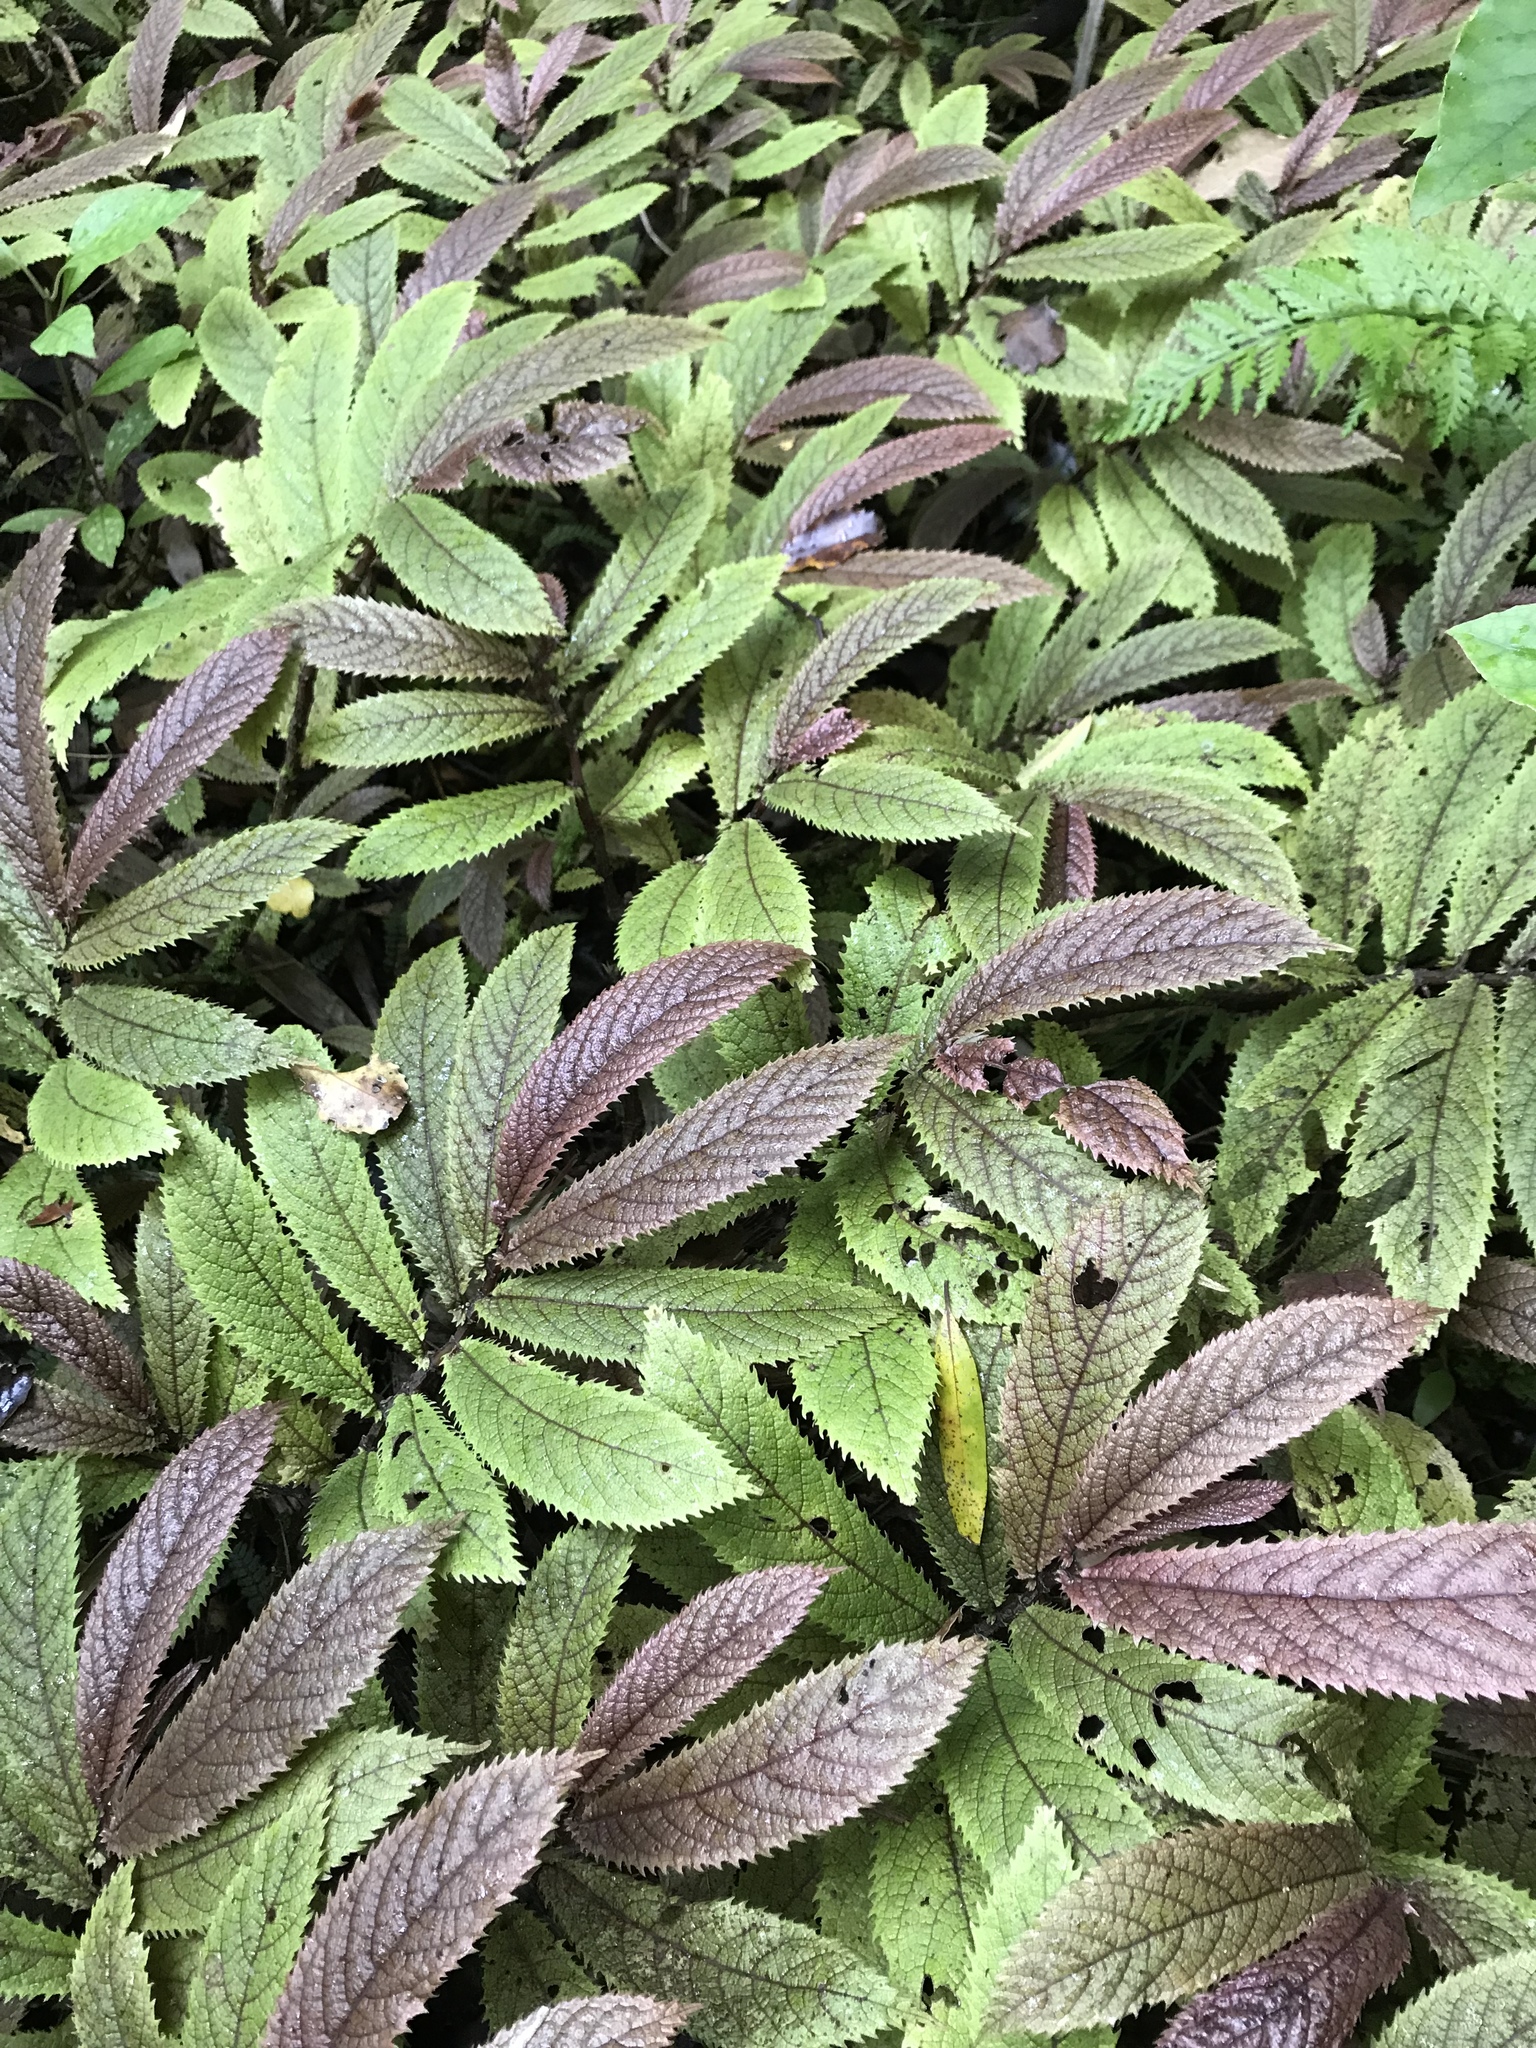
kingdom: Plantae
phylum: Tracheophyta
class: Magnoliopsida
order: Rosales
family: Urticaceae
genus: Elatostema
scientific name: Elatostema rugosum
